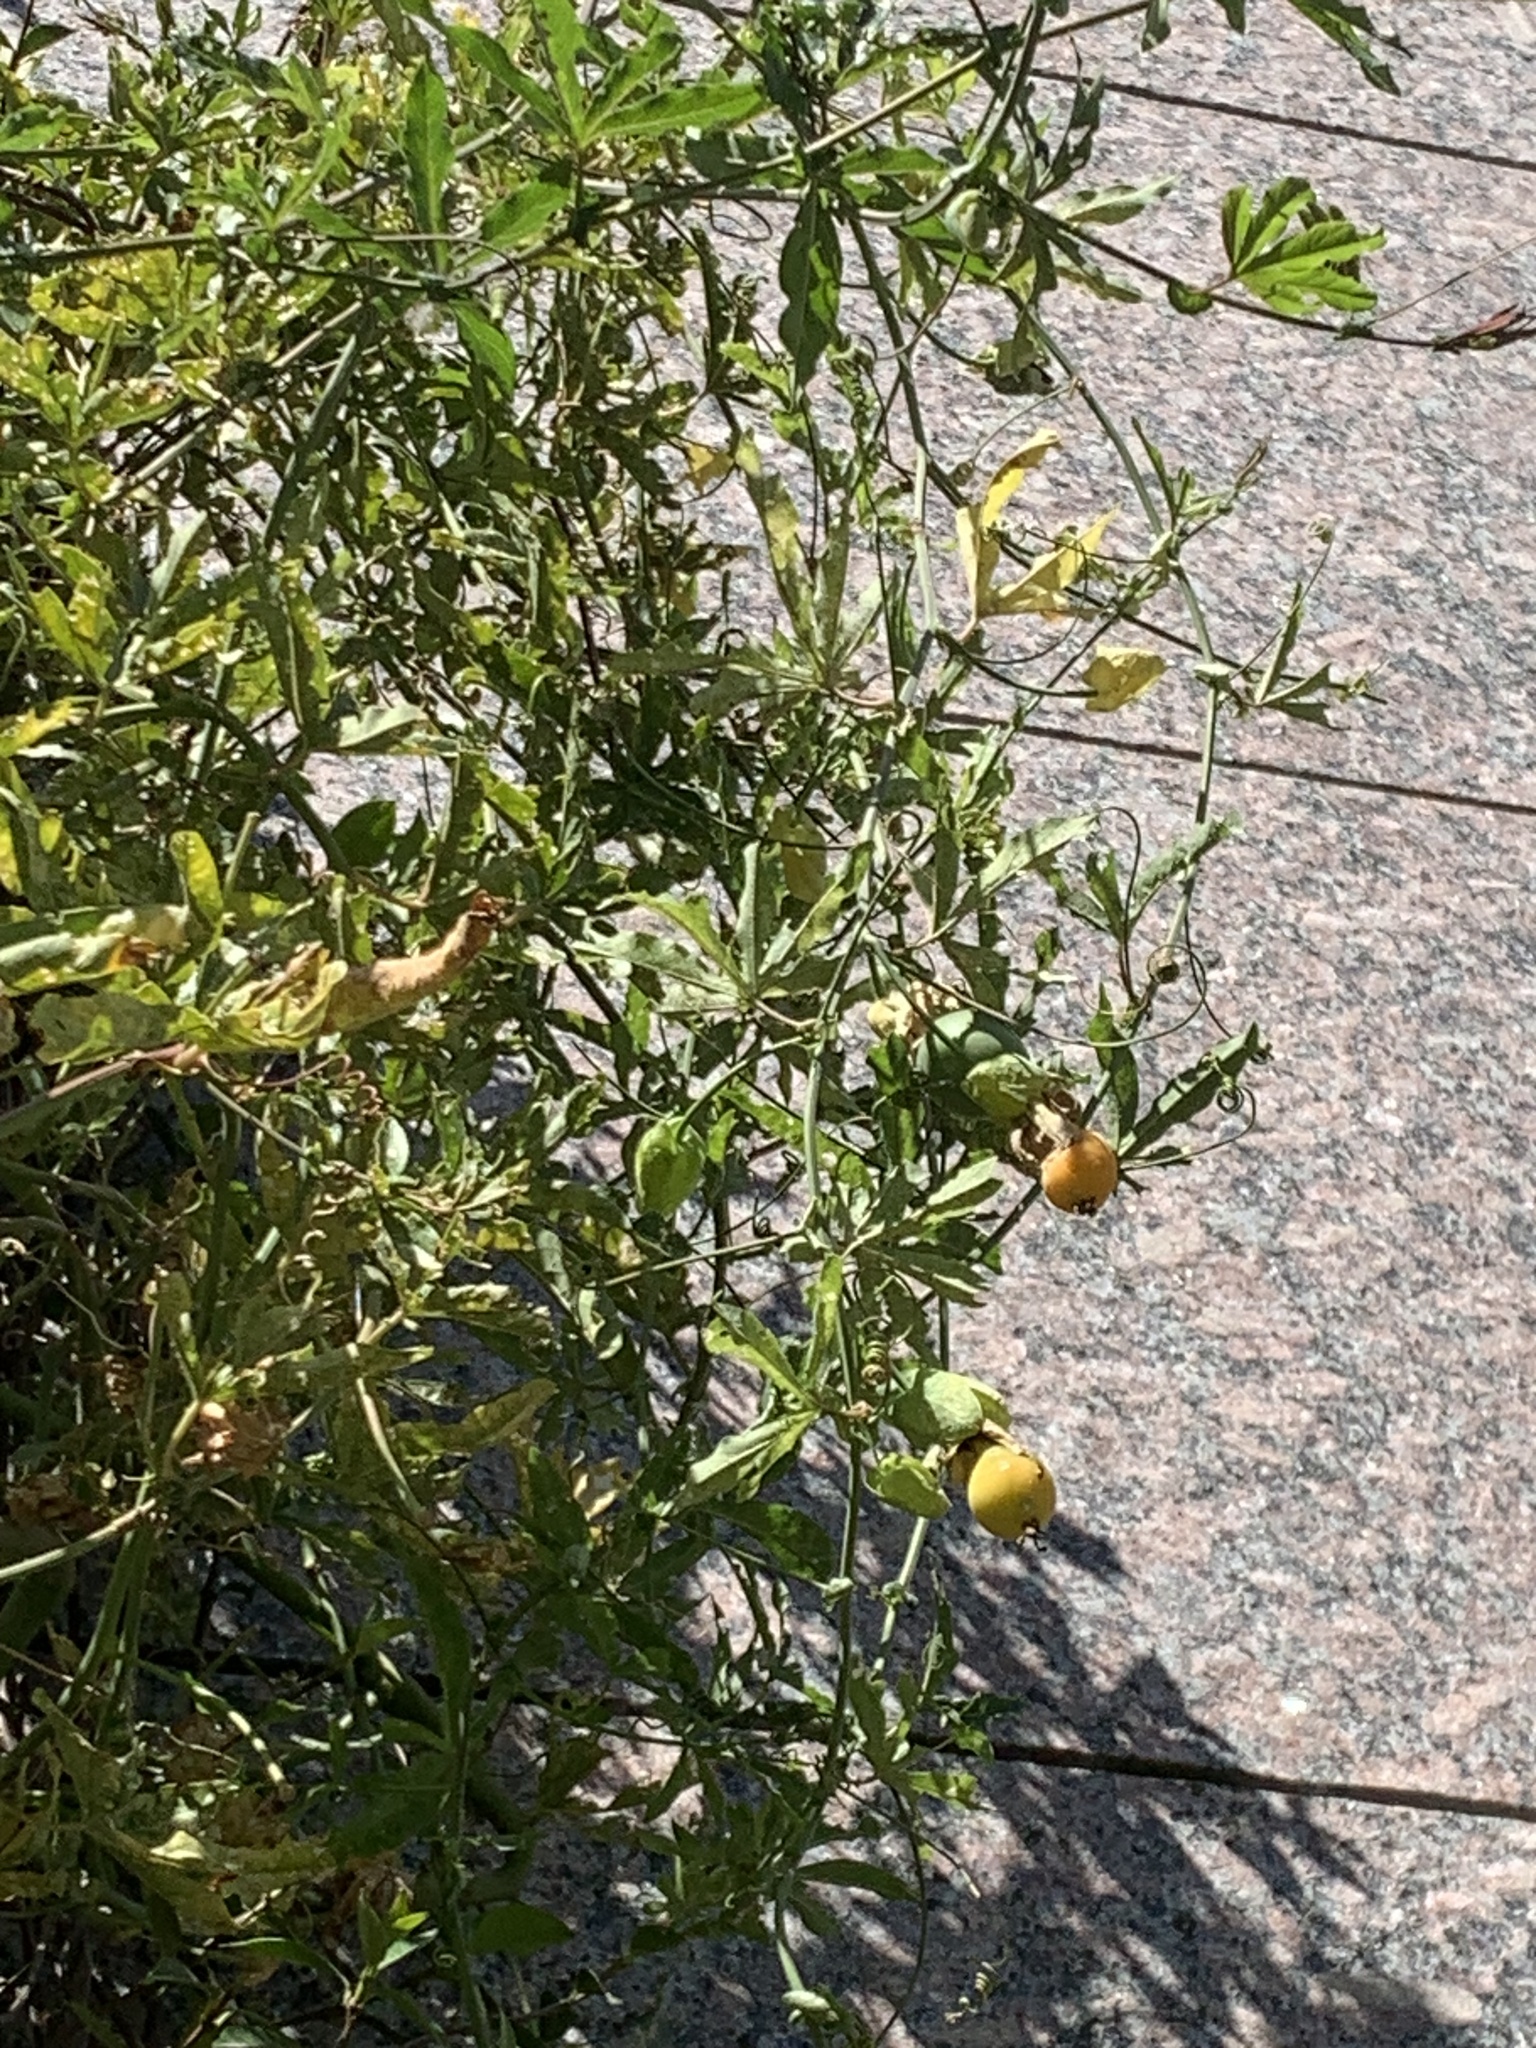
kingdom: Plantae
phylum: Tracheophyta
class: Magnoliopsida
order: Malpighiales
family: Passifloraceae
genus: Passiflora
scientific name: Passiflora caerulea
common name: Blue passionflower
